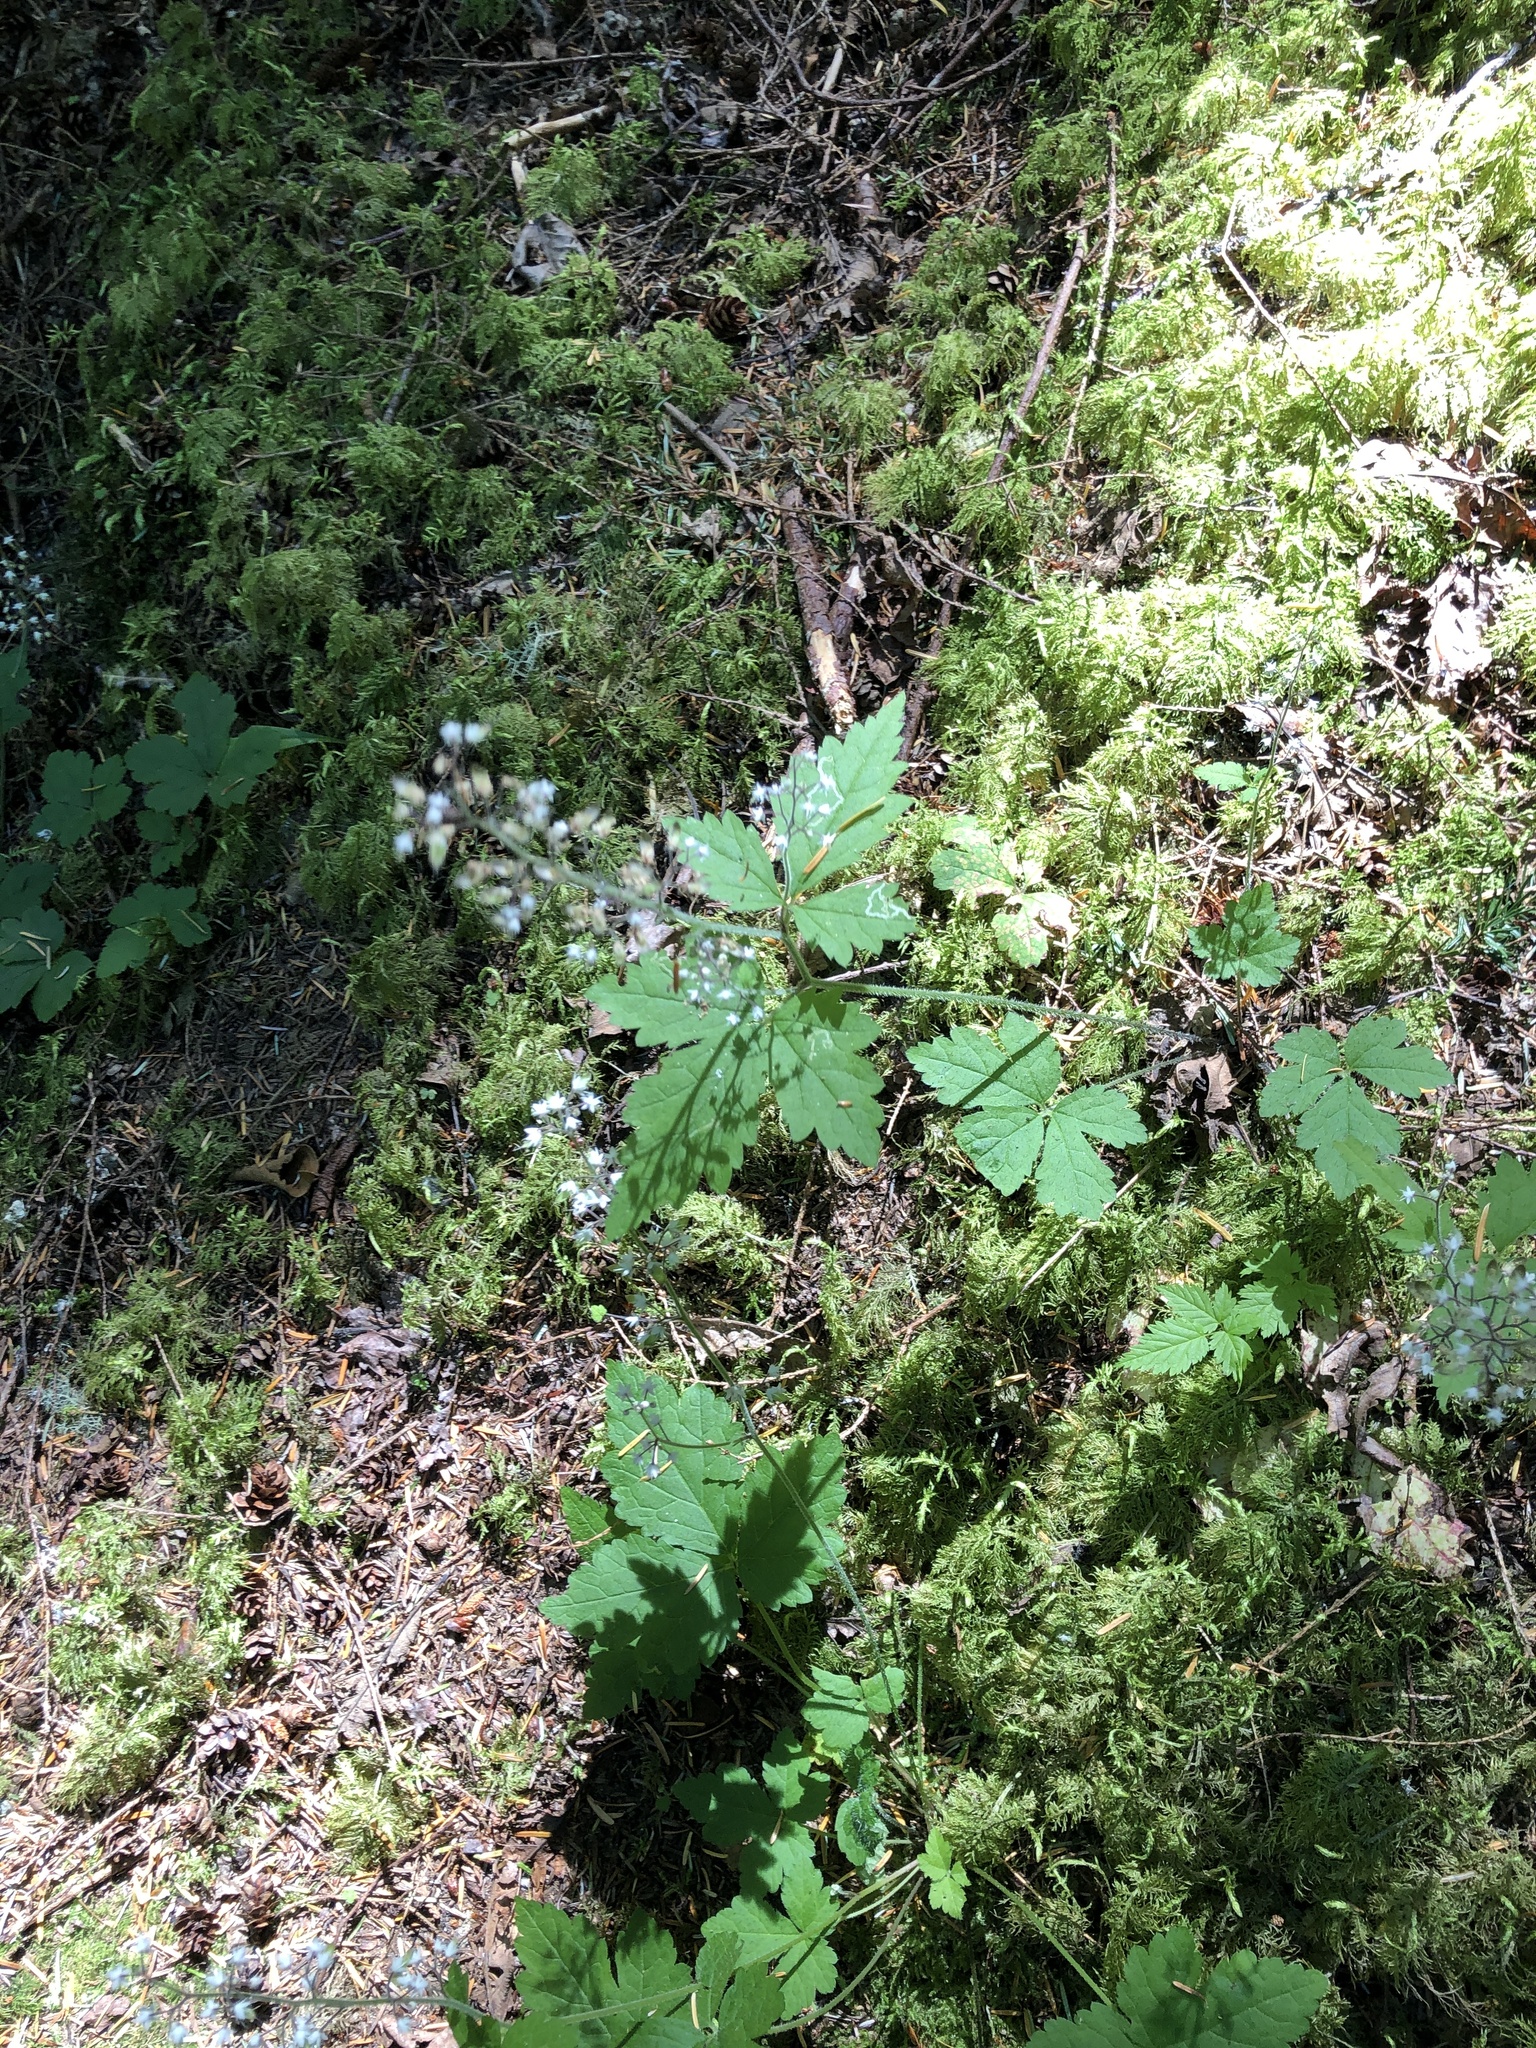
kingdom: Plantae
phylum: Tracheophyta
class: Magnoliopsida
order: Saxifragales
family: Saxifragaceae
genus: Tiarella
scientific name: Tiarella trifoliata
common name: Sugar-scoop
